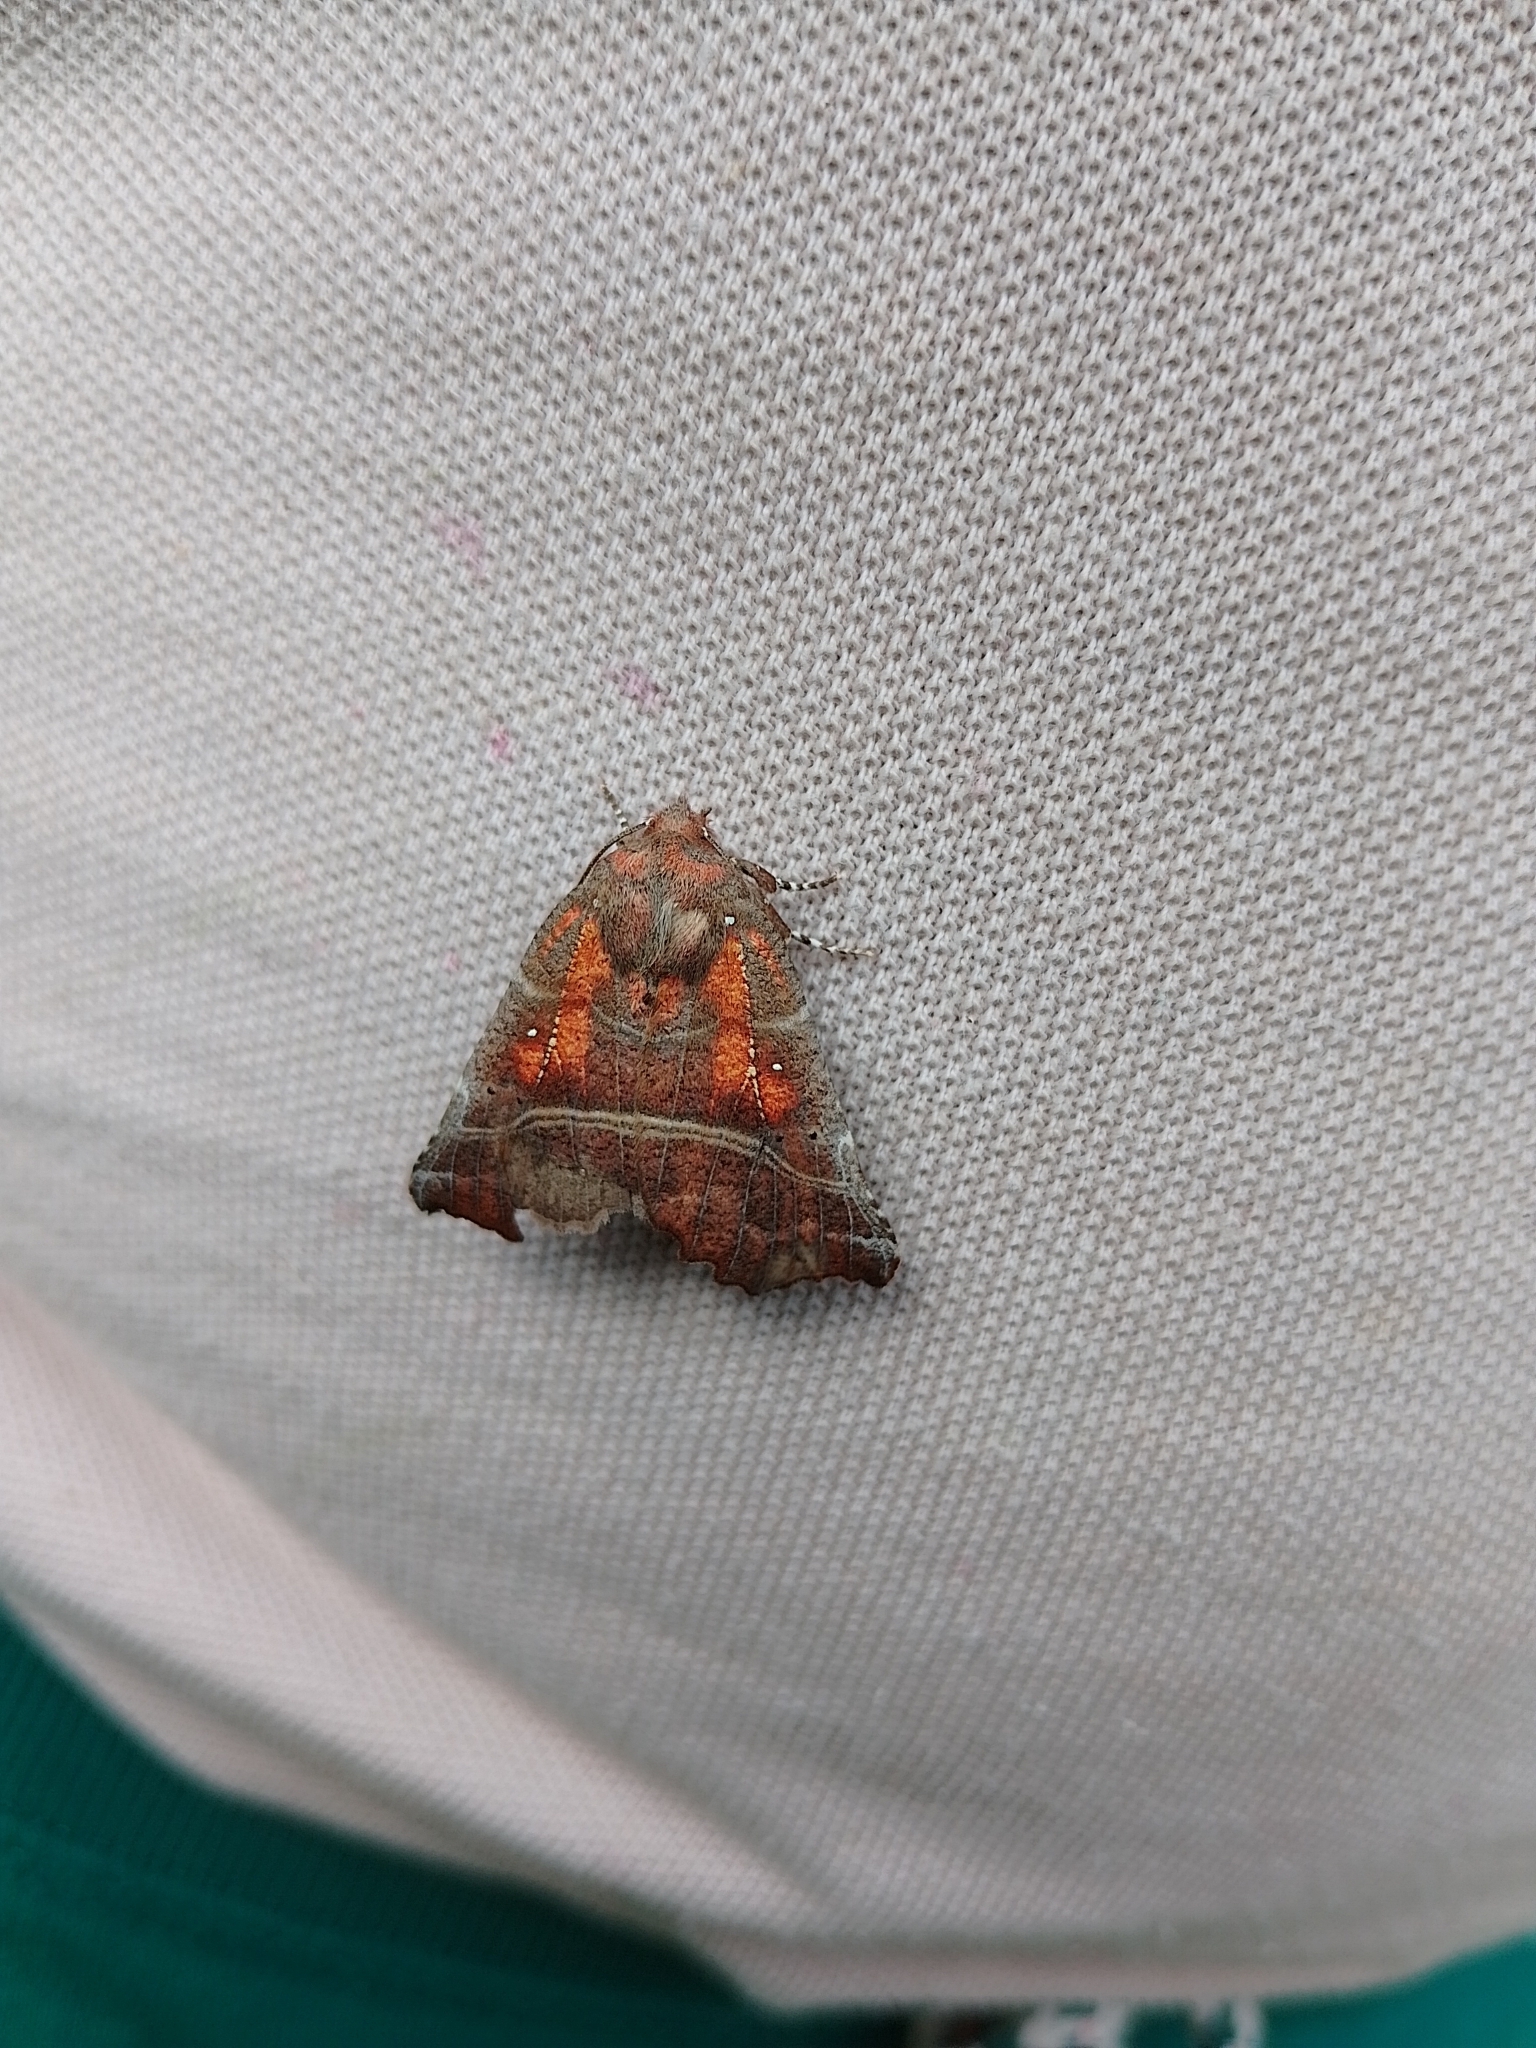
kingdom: Animalia
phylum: Arthropoda
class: Insecta
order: Lepidoptera
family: Erebidae
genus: Scoliopteryx
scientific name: Scoliopteryx libatrix
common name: Herald
